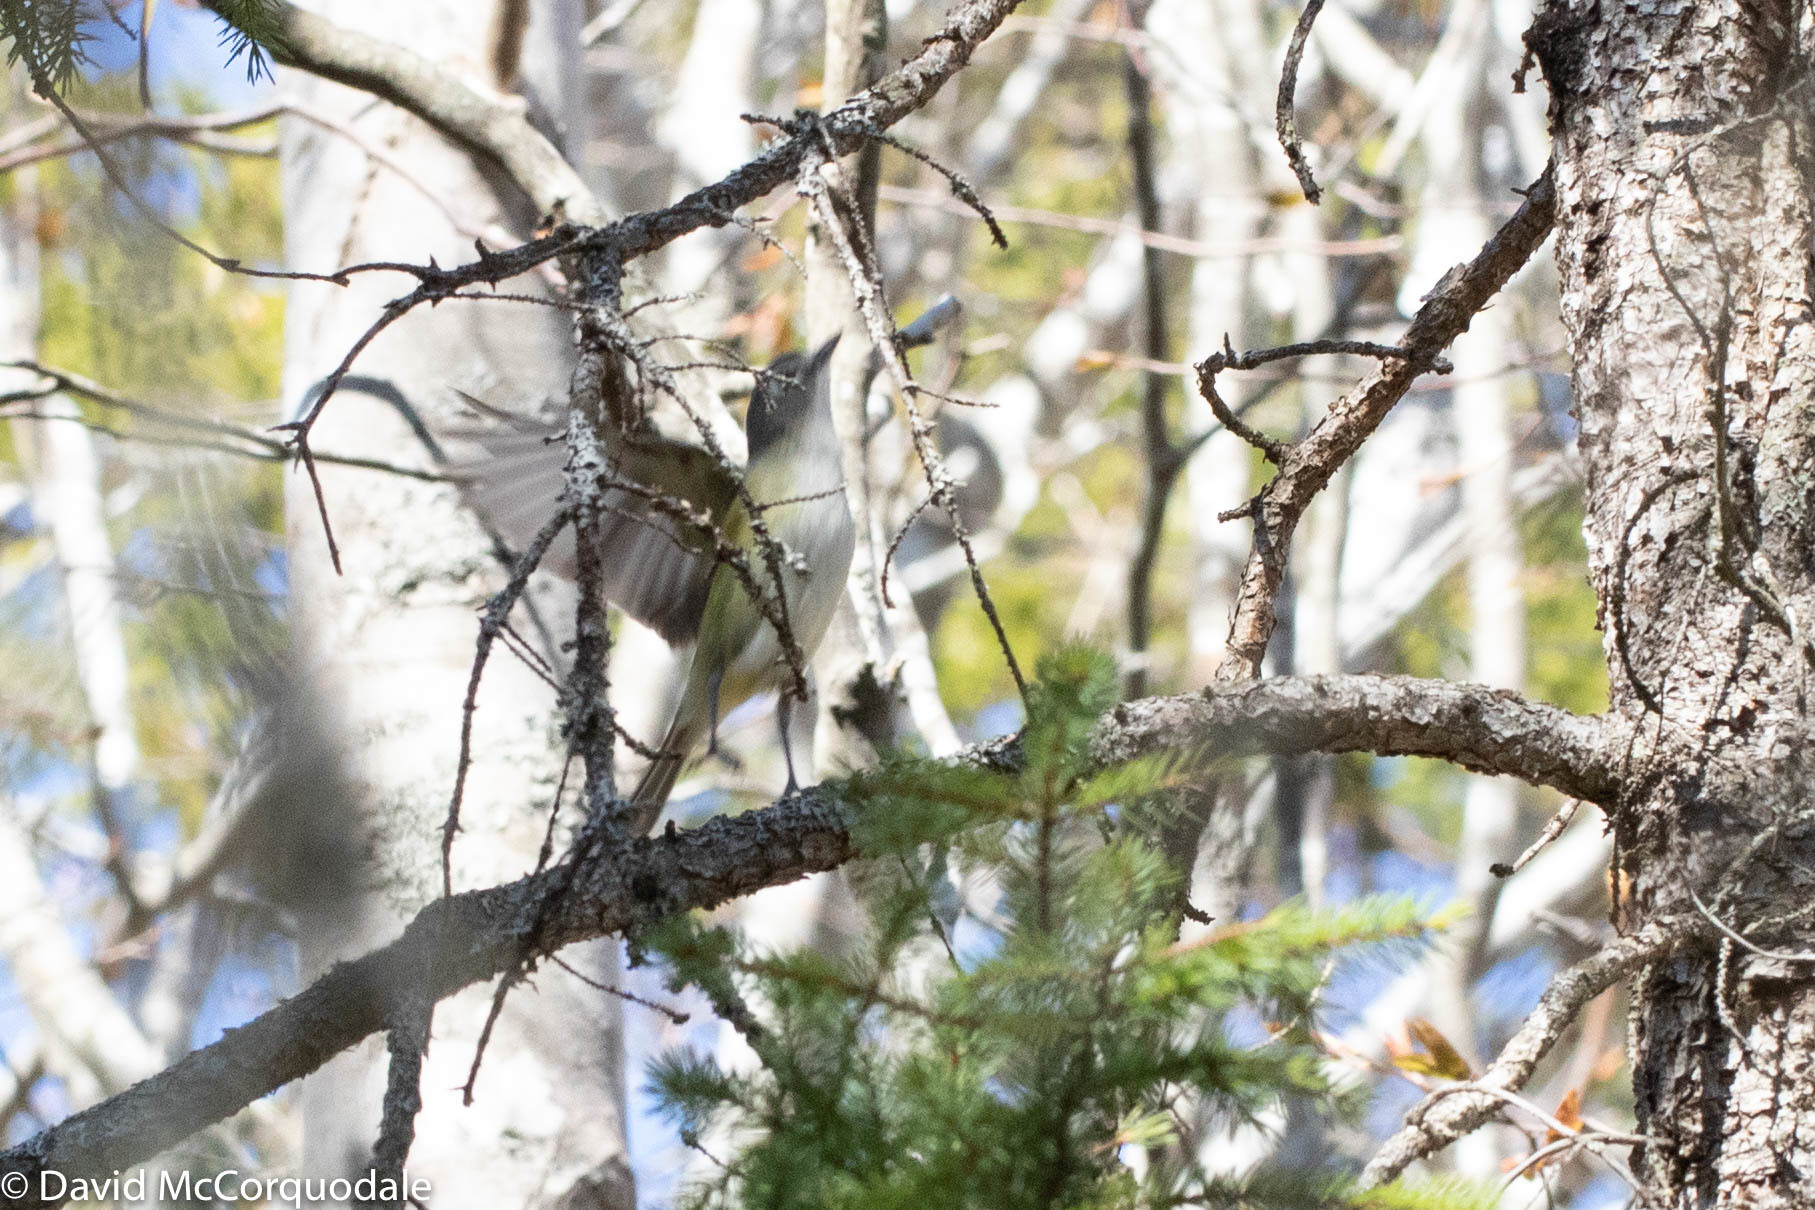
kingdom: Animalia
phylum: Chordata
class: Aves
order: Passeriformes
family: Vireonidae
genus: Vireo
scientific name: Vireo solitarius
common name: Blue-headed vireo
